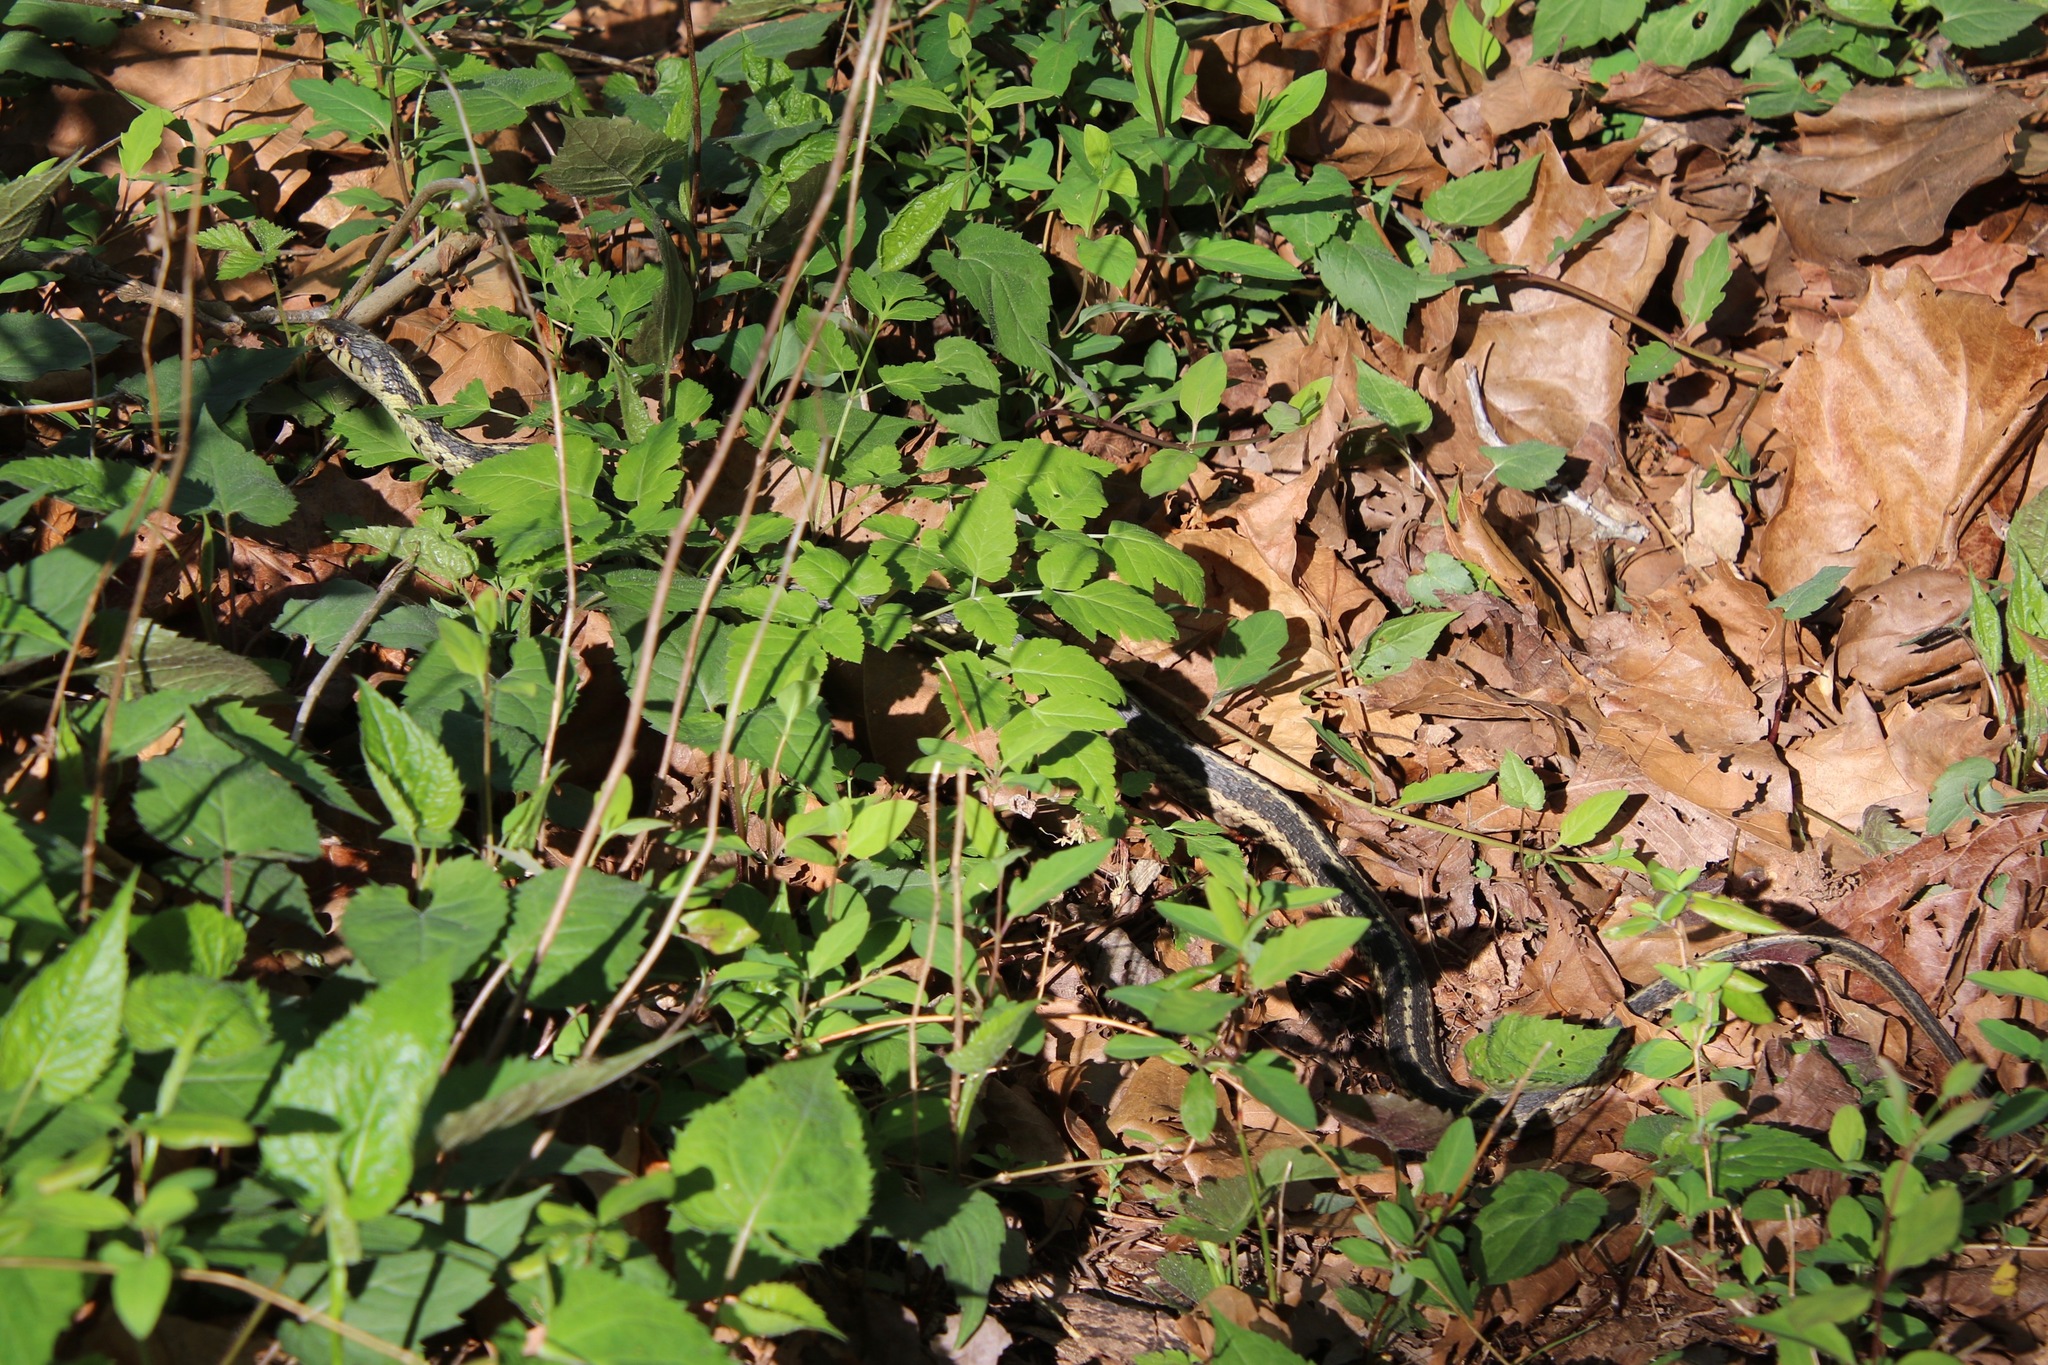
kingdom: Animalia
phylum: Chordata
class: Squamata
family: Colubridae
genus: Thamnophis
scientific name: Thamnophis sirtalis
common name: Common garter snake
